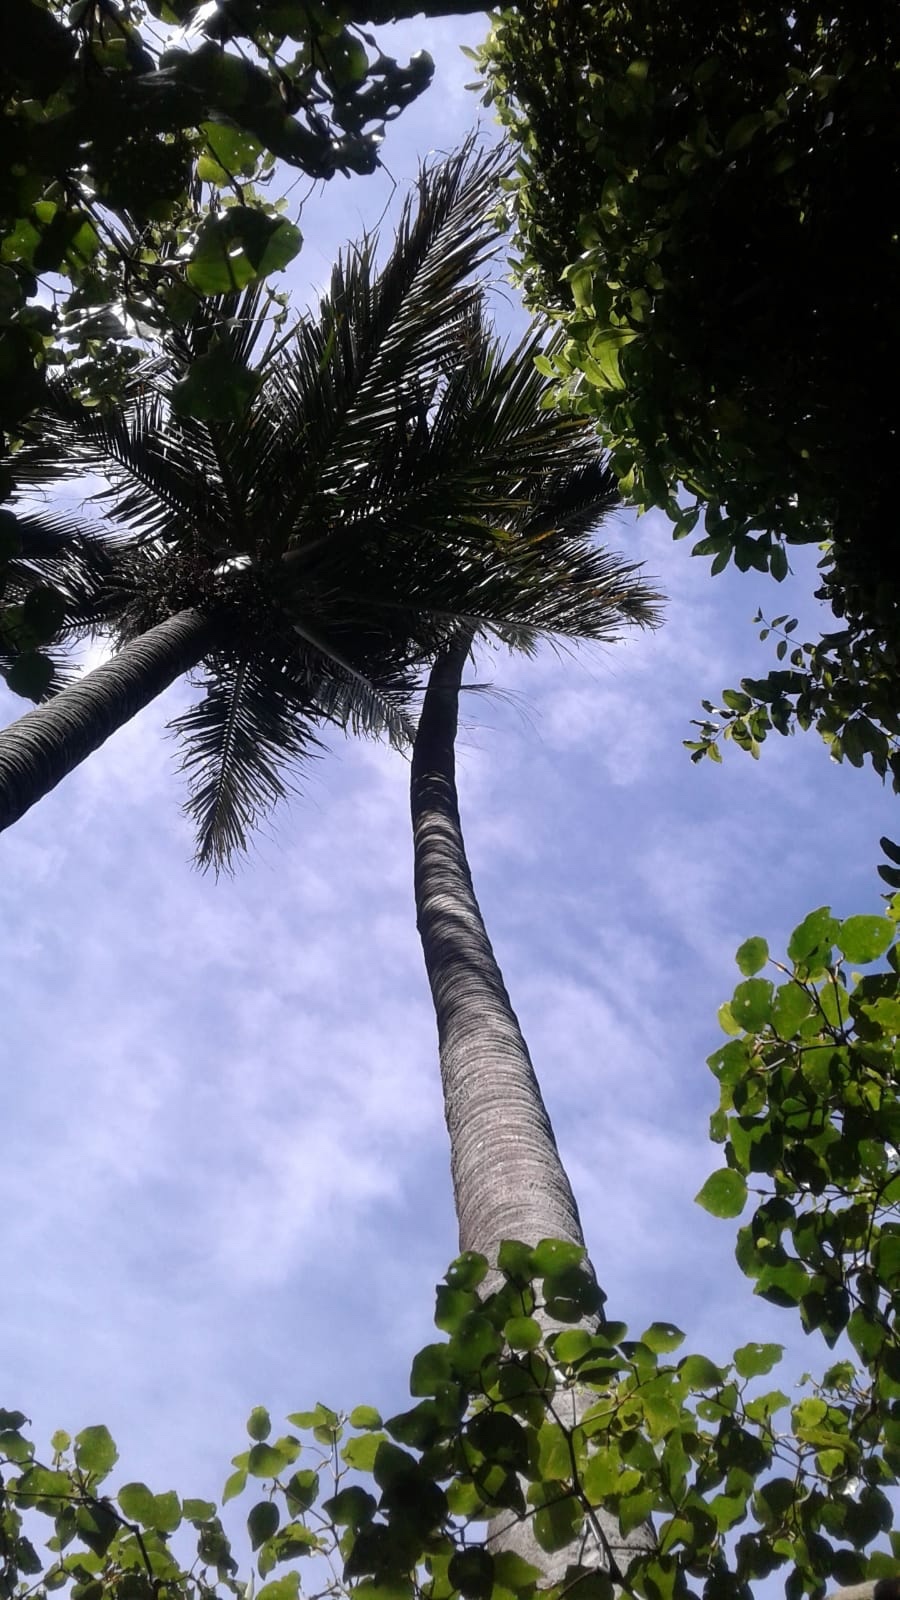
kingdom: Plantae
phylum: Tracheophyta
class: Liliopsida
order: Arecales
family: Arecaceae
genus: Rhopalostylis
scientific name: Rhopalostylis sapida
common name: Feather-duster palm
